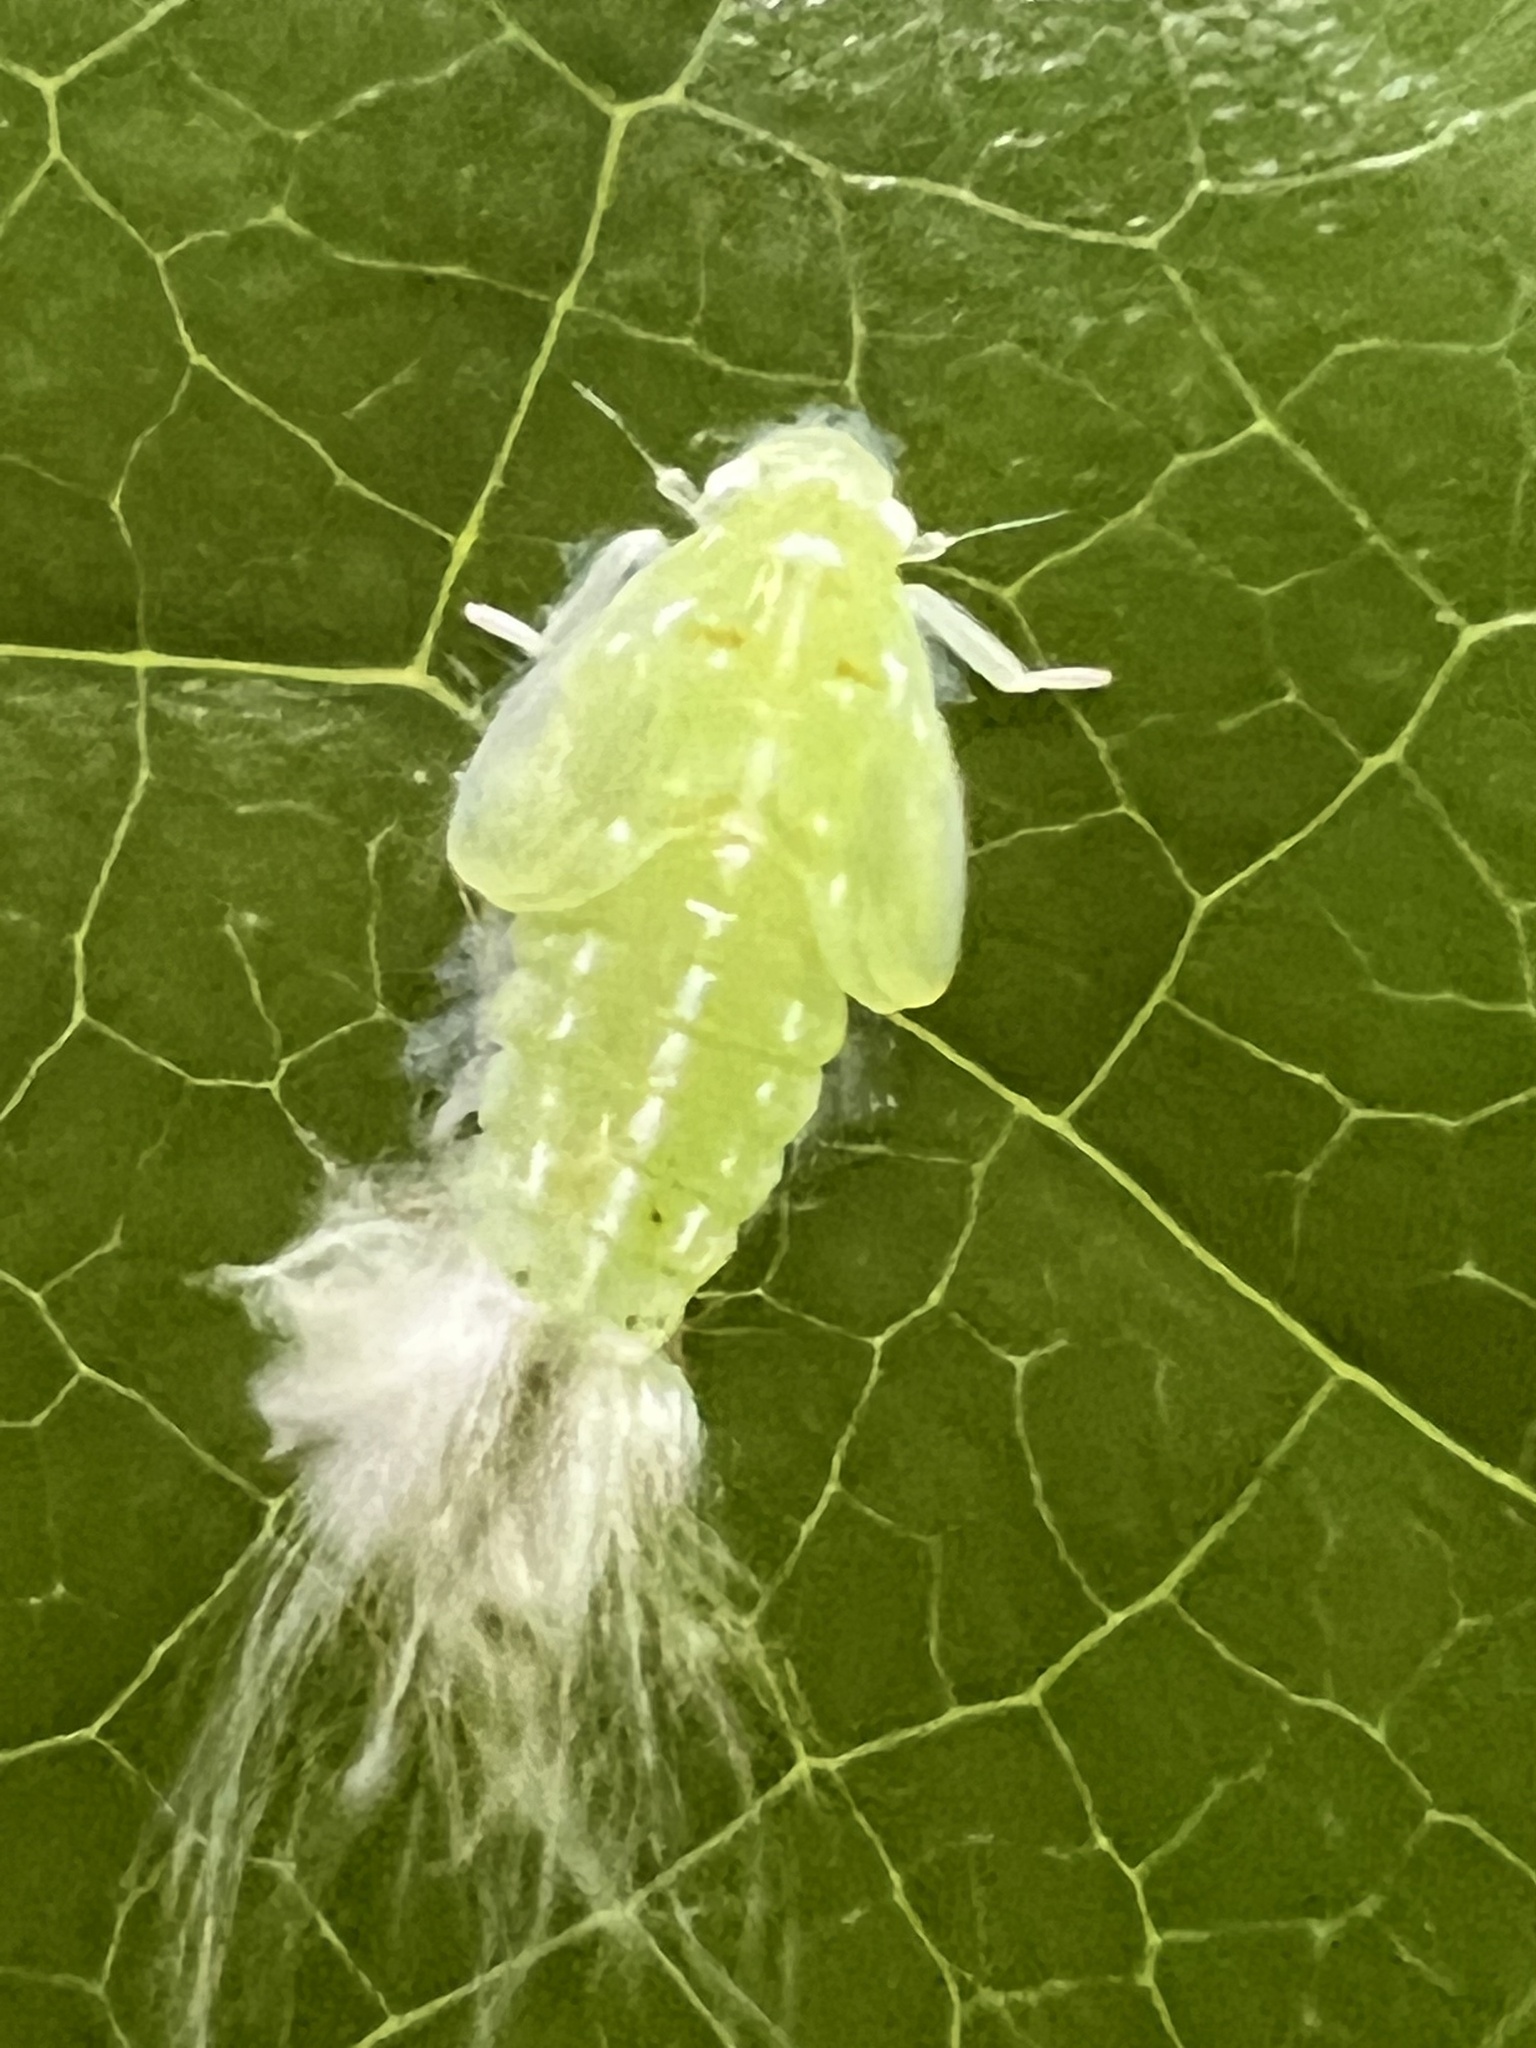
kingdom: Animalia
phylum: Arthropoda
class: Insecta
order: Hemiptera
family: Flatidae
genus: Ormenoides
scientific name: Ormenoides venusta
